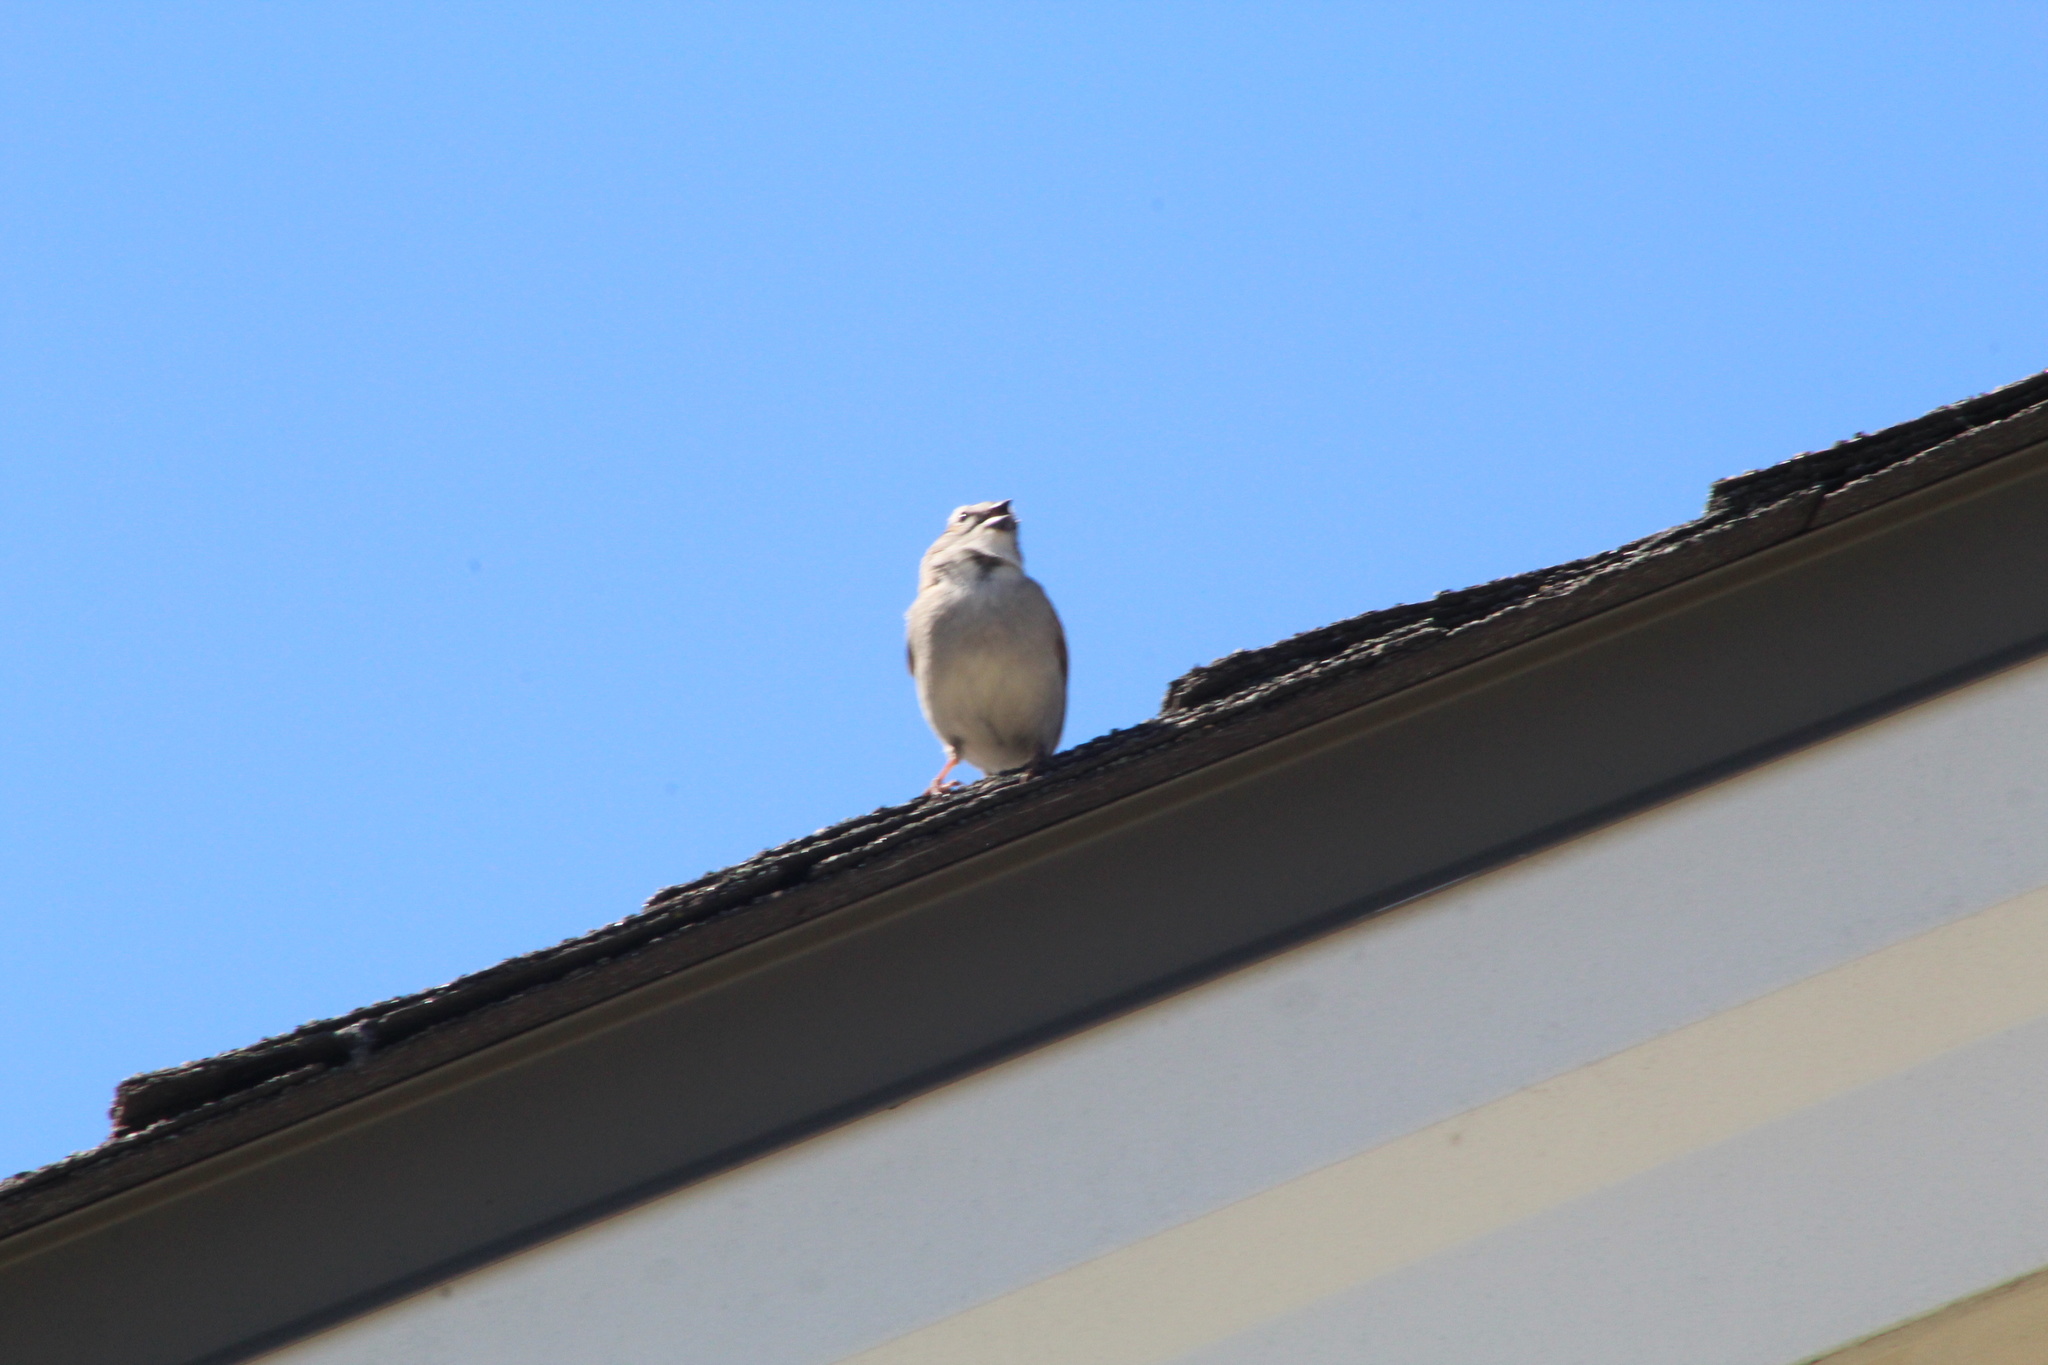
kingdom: Animalia
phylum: Chordata
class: Aves
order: Passeriformes
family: Passerellidae
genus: Spizella
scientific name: Spizella passerina
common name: Chipping sparrow
